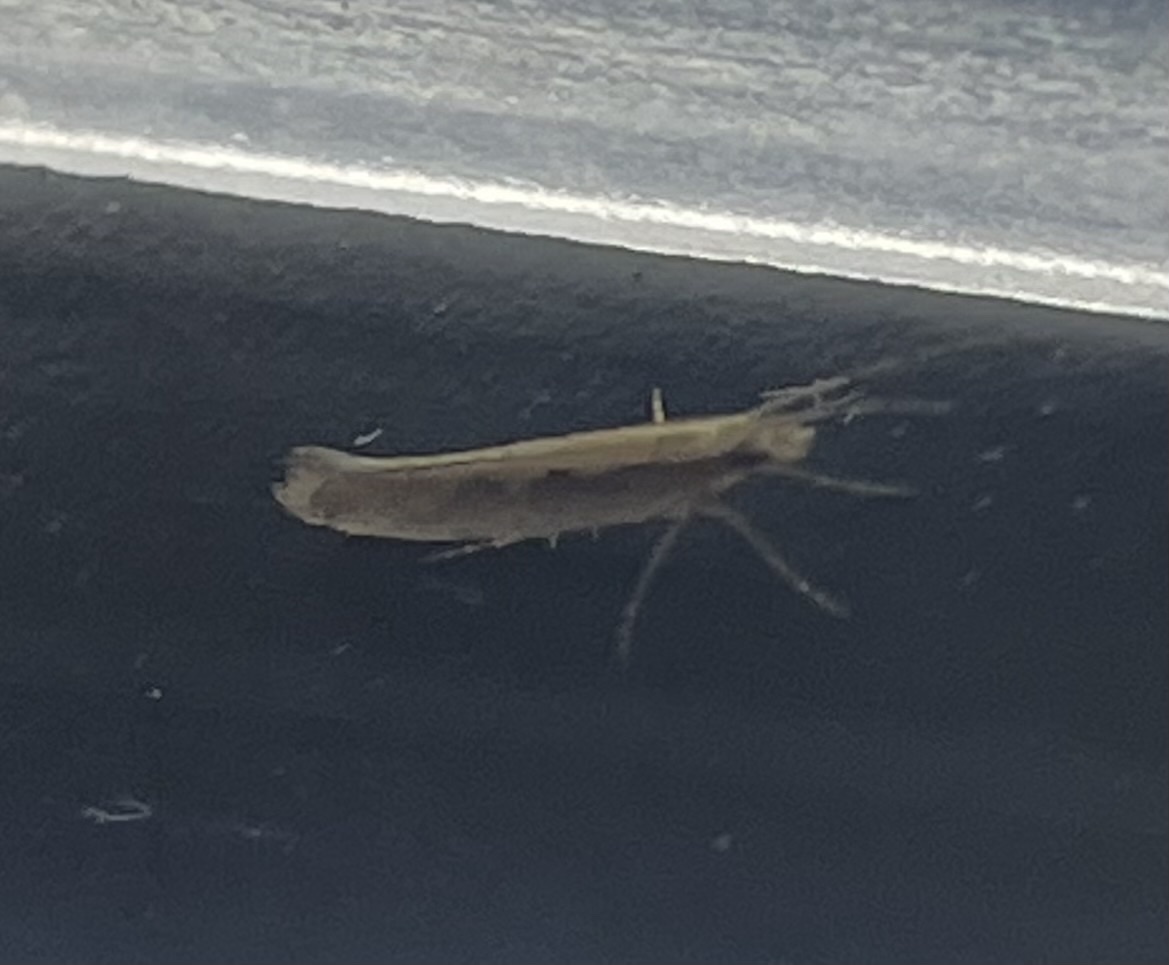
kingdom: Animalia
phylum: Arthropoda
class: Insecta
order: Lepidoptera
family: Plutellidae
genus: Plutella
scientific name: Plutella xylostella
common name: Diamond-back moth
